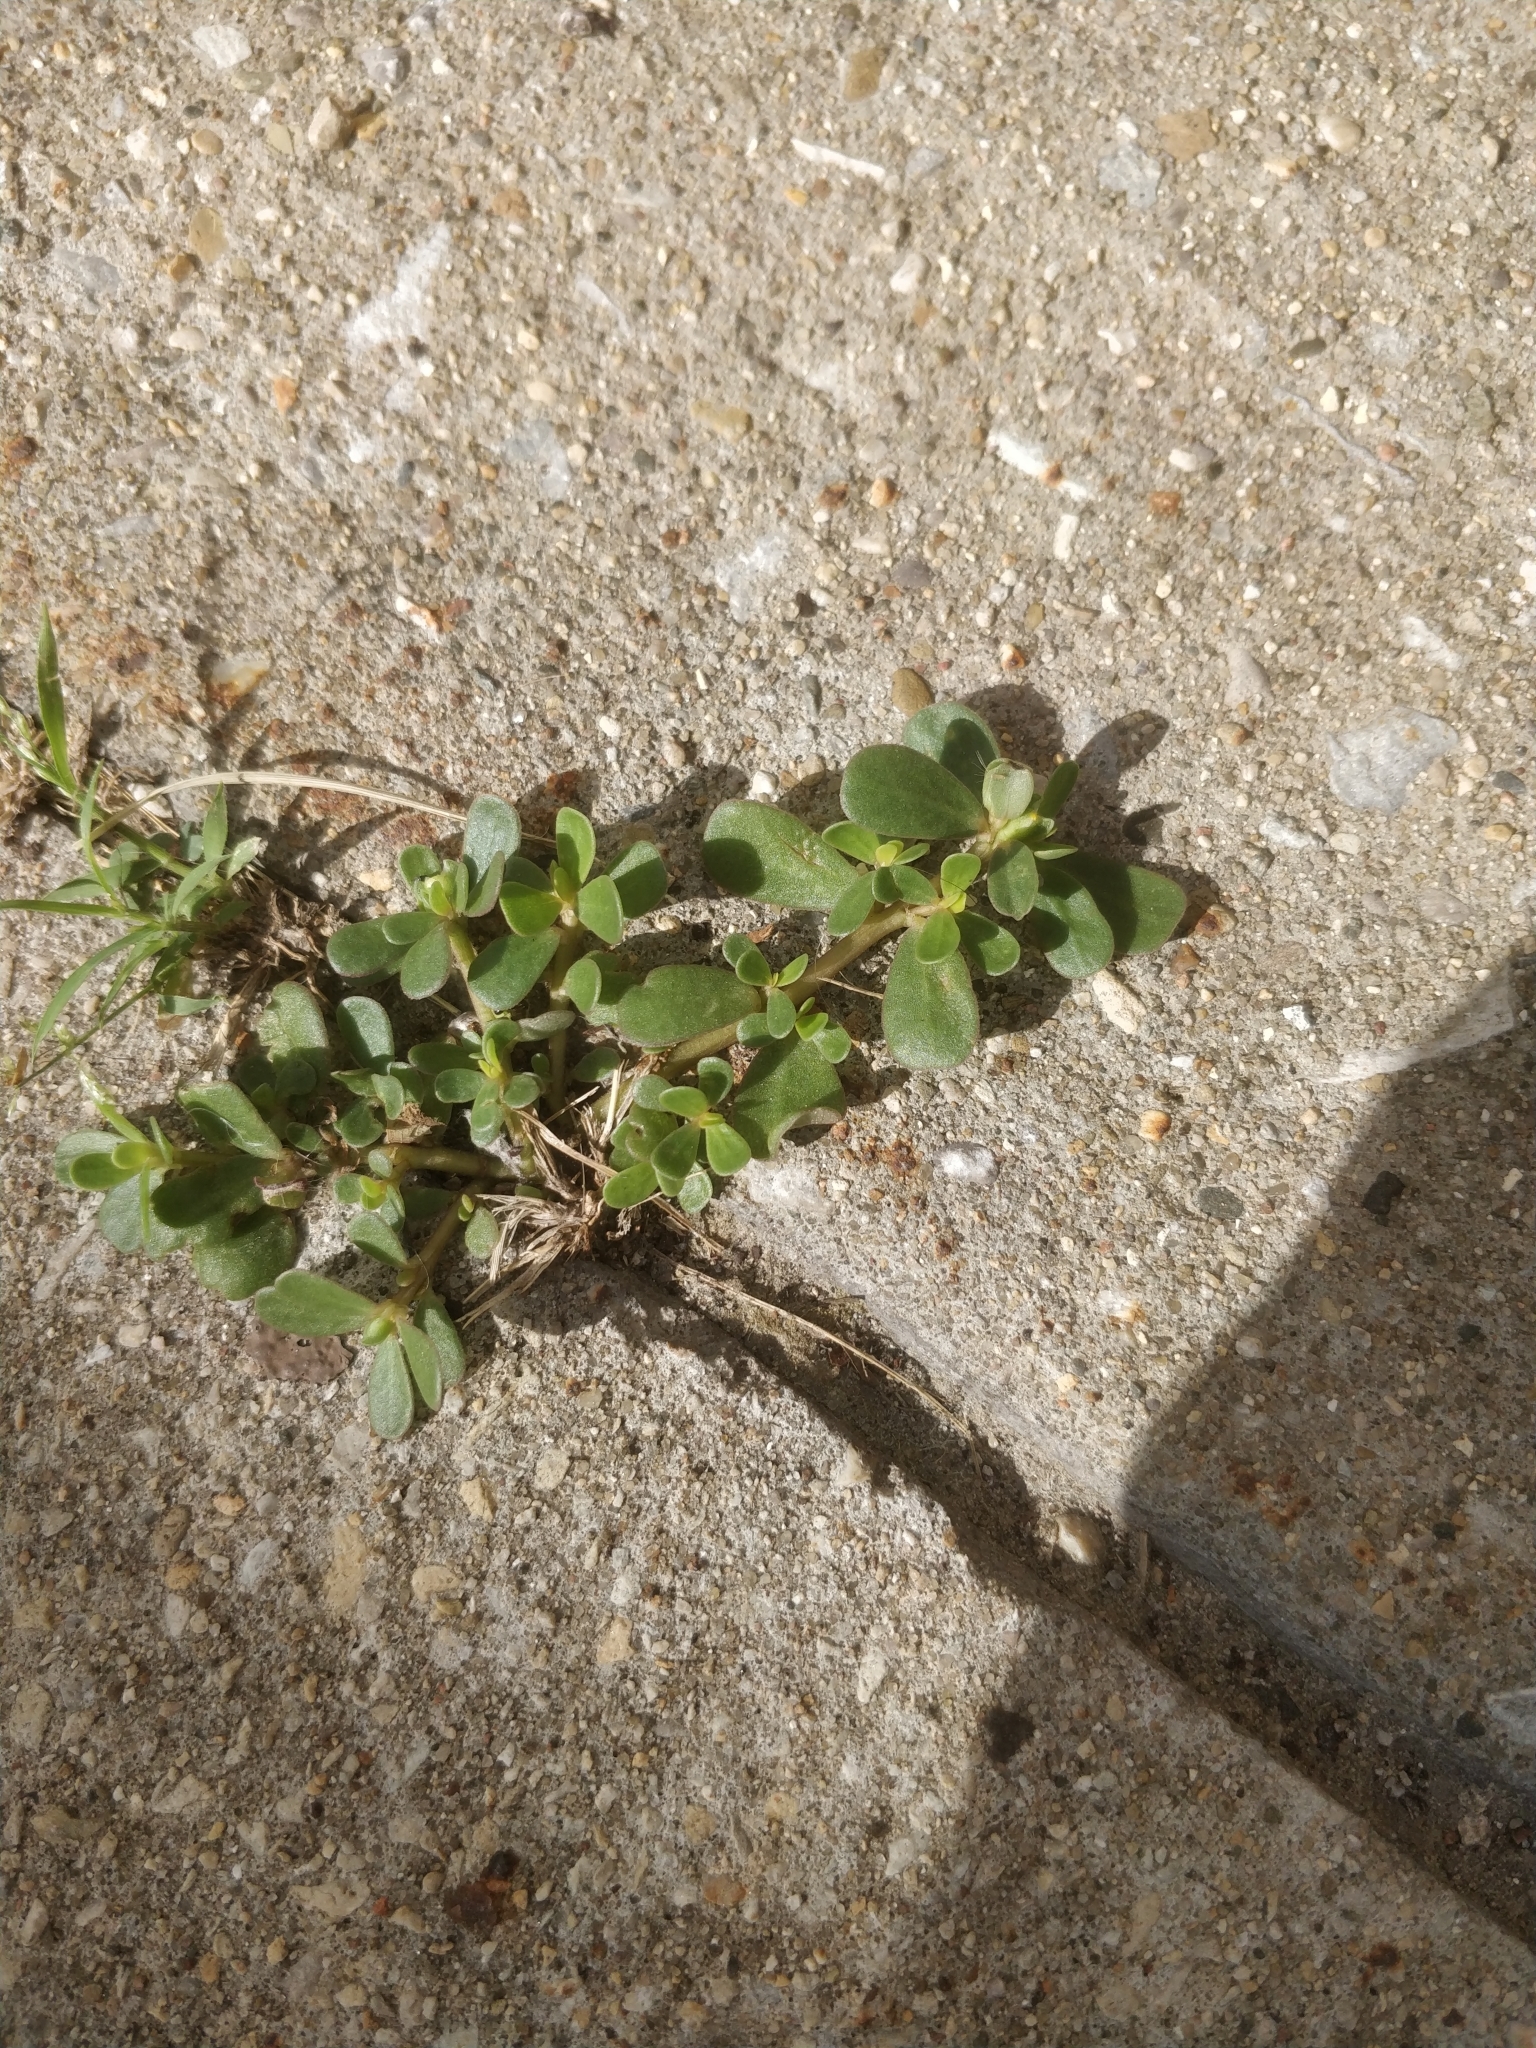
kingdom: Plantae
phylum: Tracheophyta
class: Magnoliopsida
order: Caryophyllales
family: Portulacaceae
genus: Portulaca
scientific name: Portulaca oleracea
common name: Common purslane
